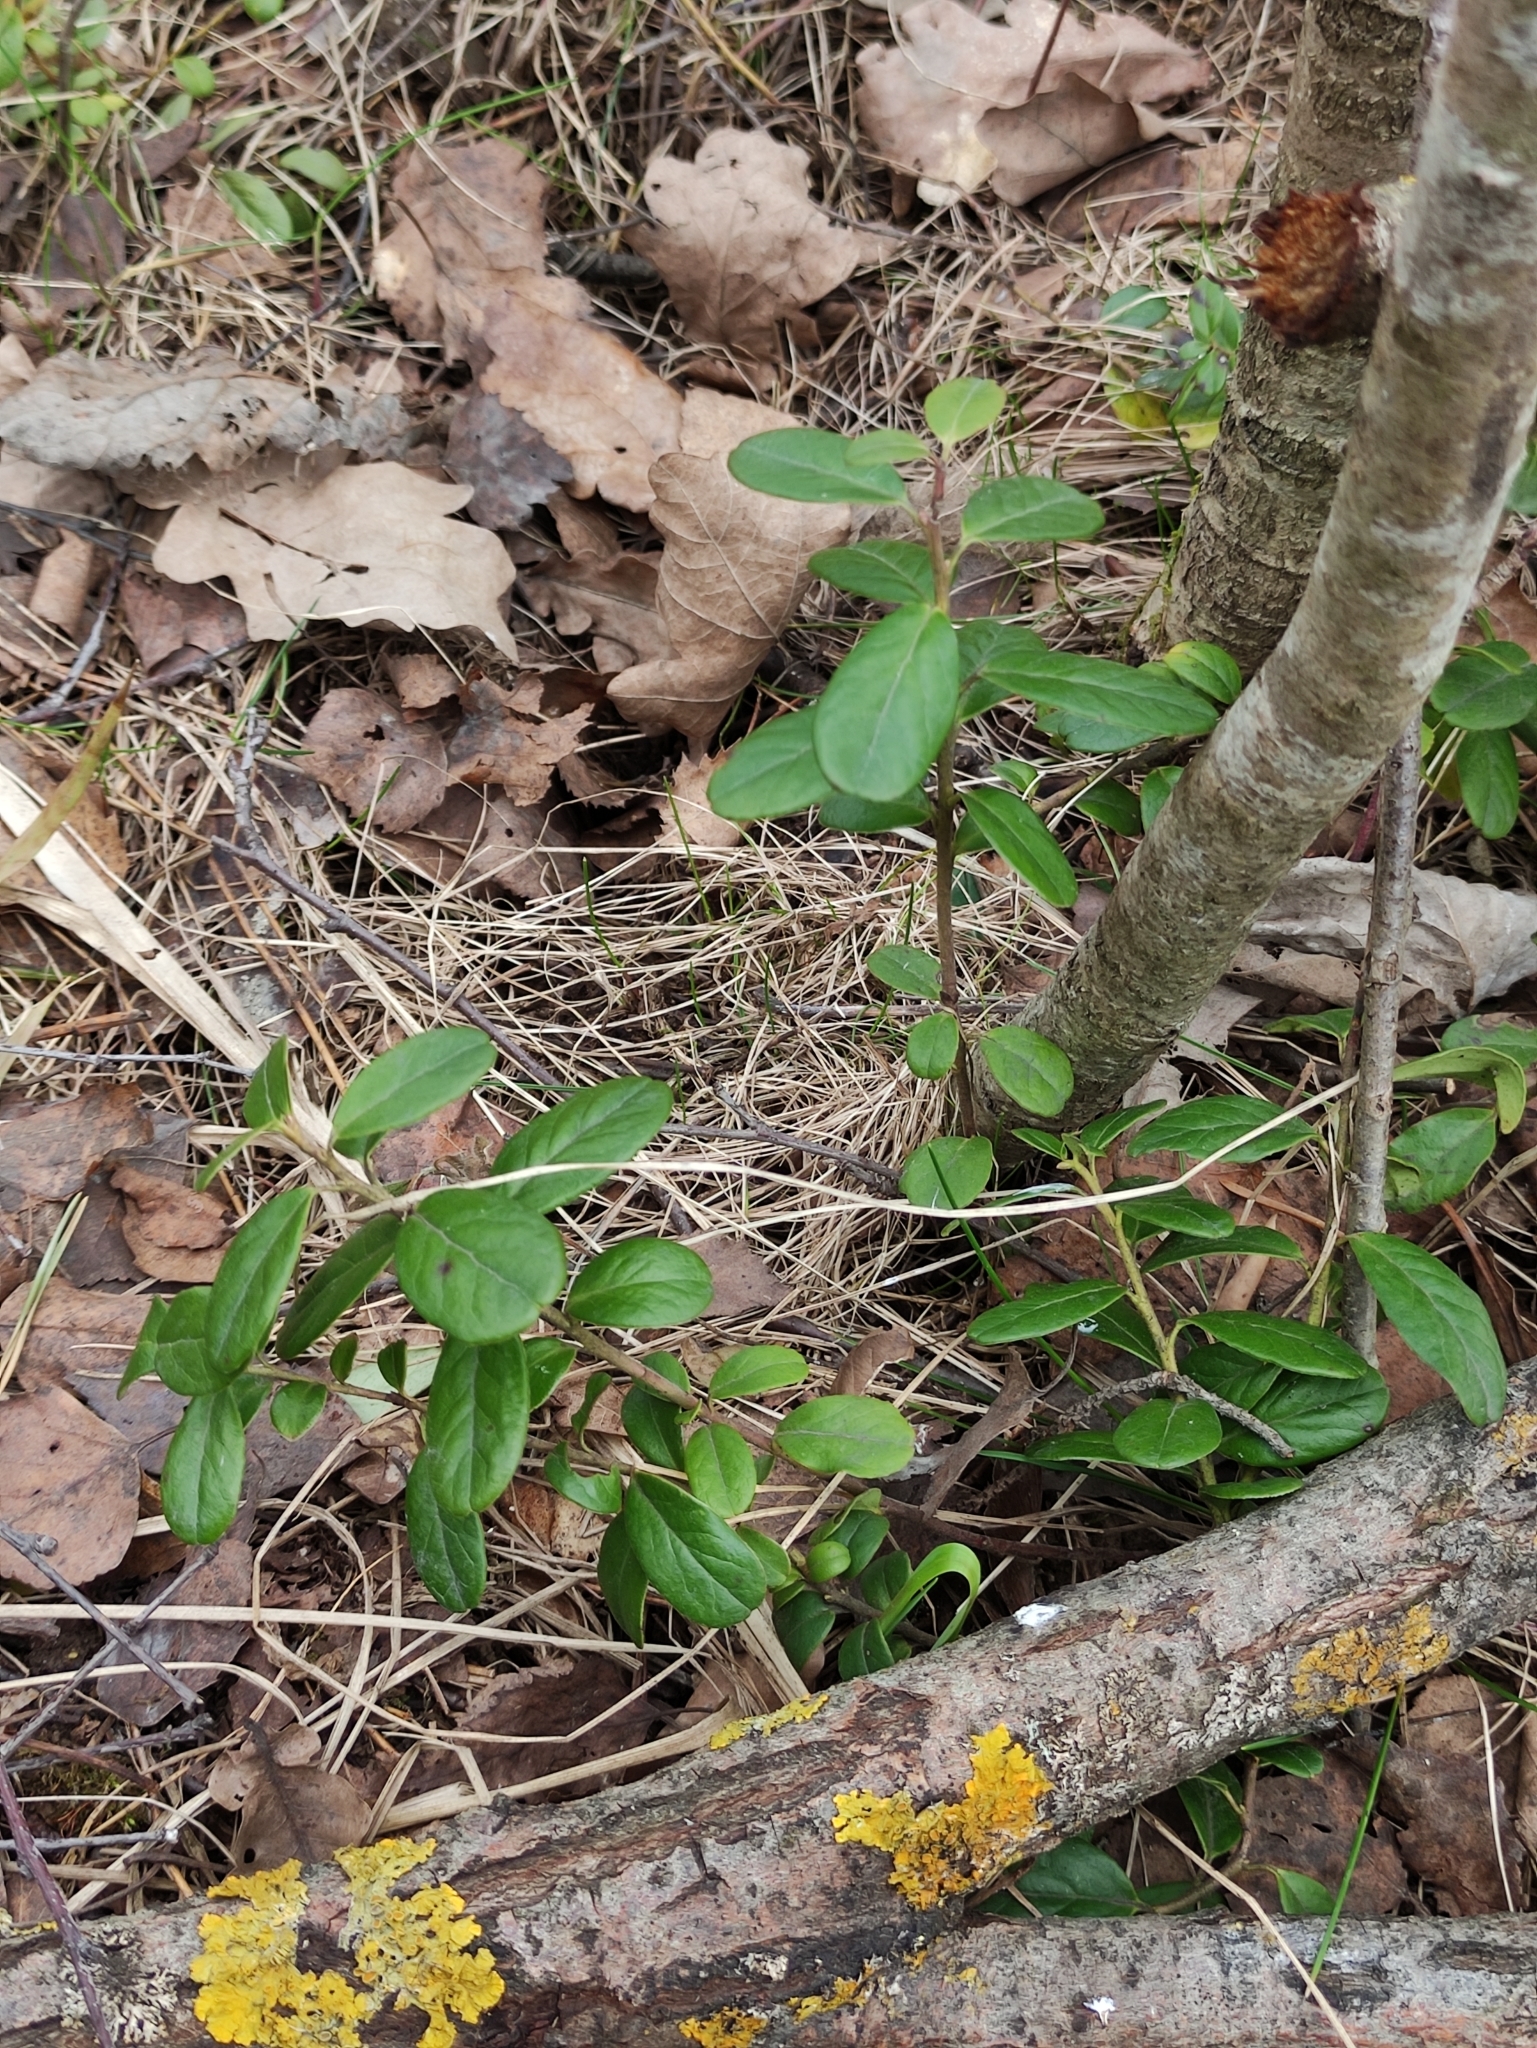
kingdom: Plantae
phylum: Tracheophyta
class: Magnoliopsida
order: Ericales
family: Ericaceae
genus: Vaccinium
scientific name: Vaccinium vitis-idaea
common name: Cowberry
